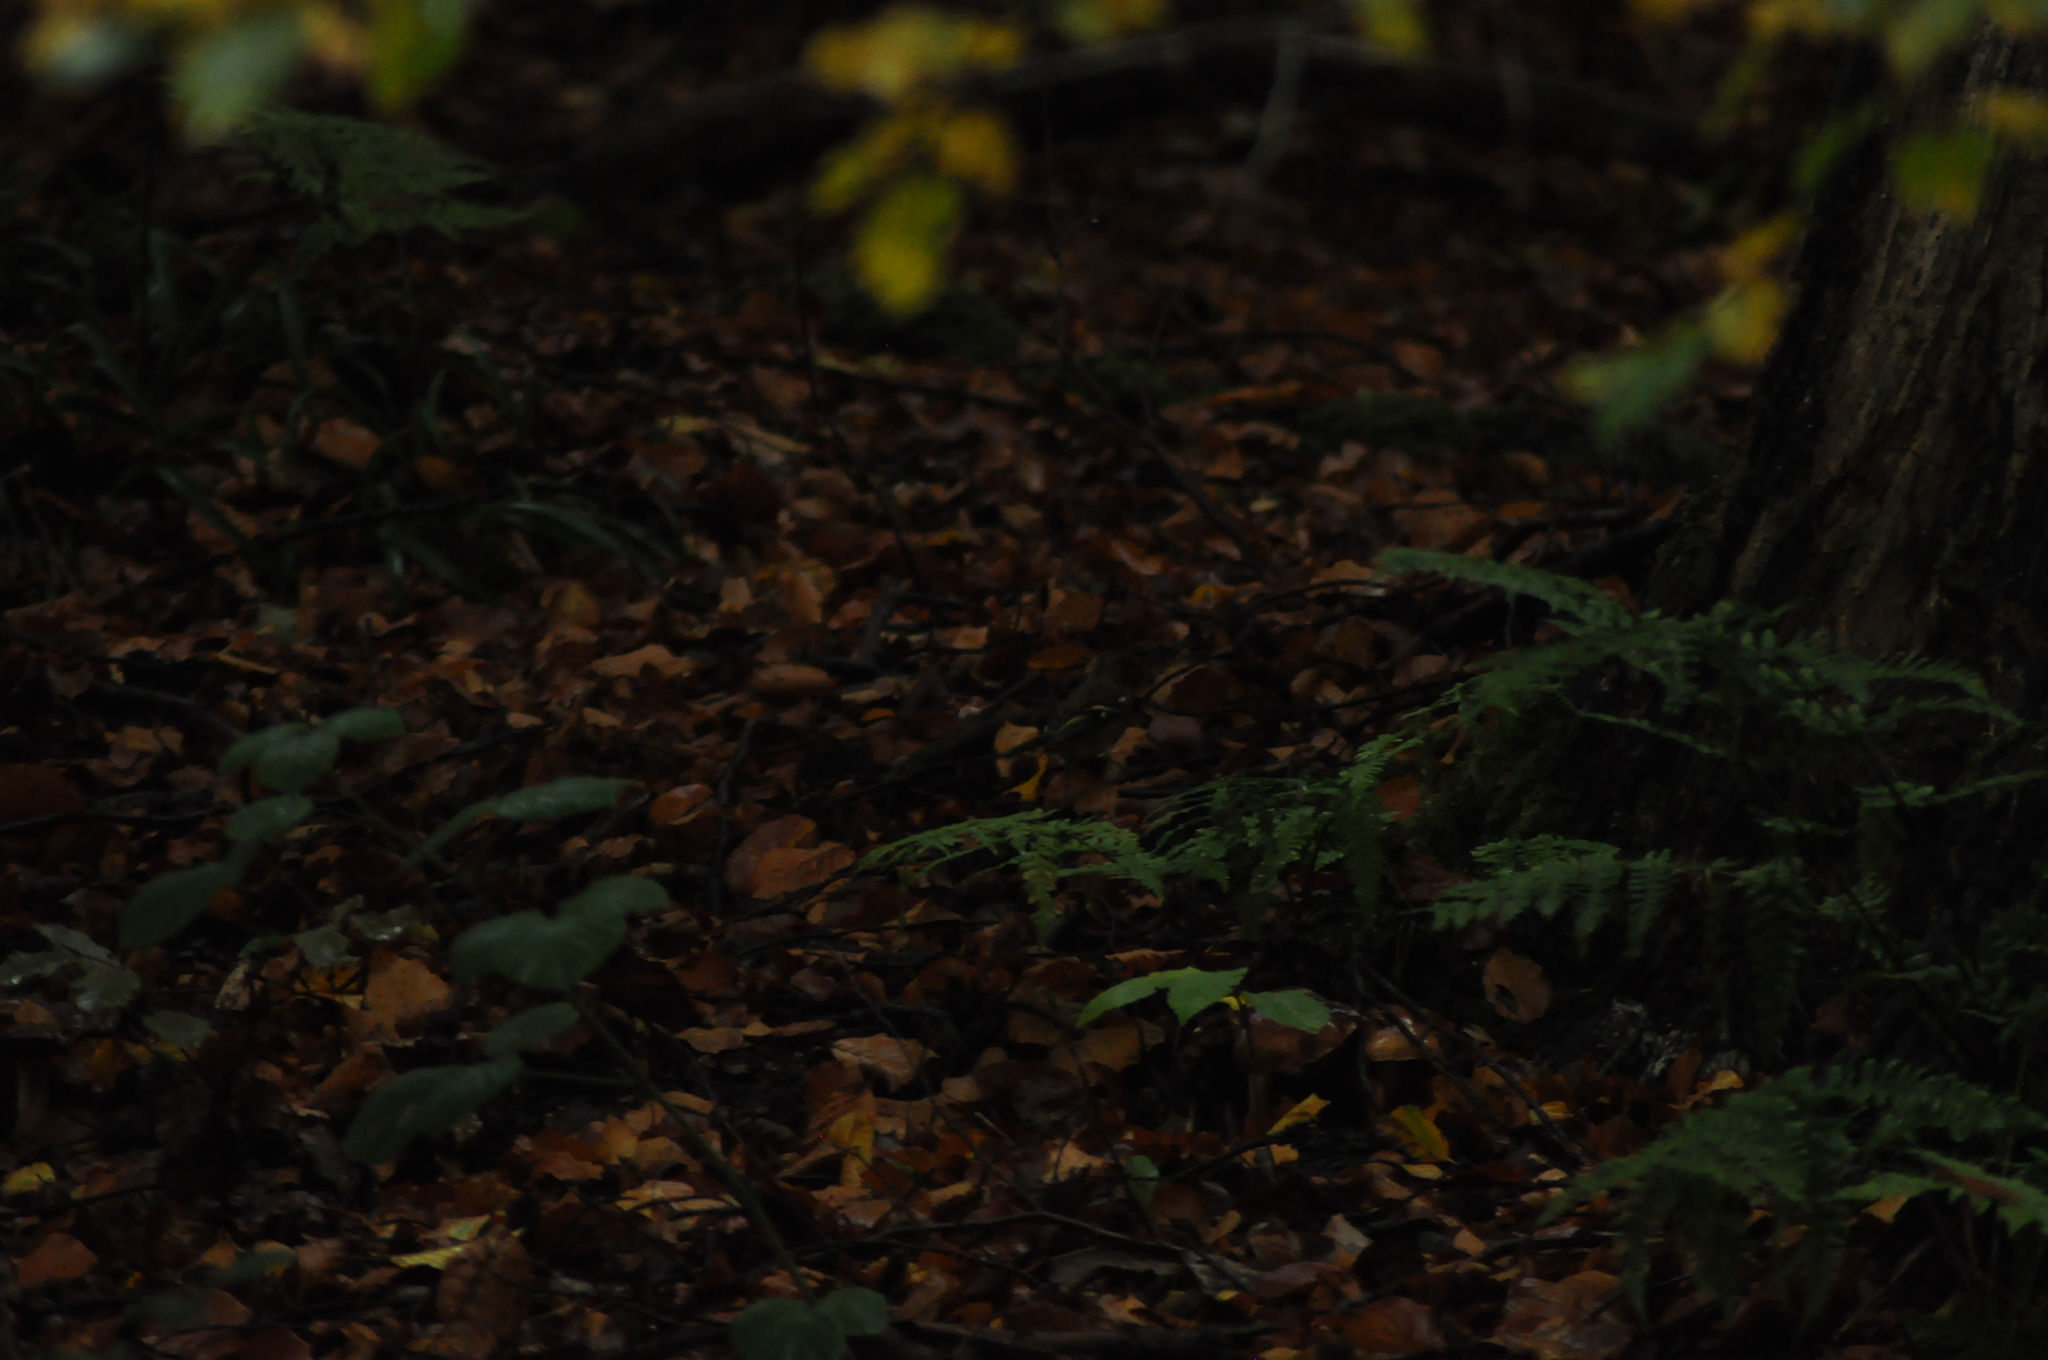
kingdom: Animalia
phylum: Chordata
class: Aves
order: Passeriformes
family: Fringillidae
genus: Fringilla
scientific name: Fringilla coelebs
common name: Common chaffinch
